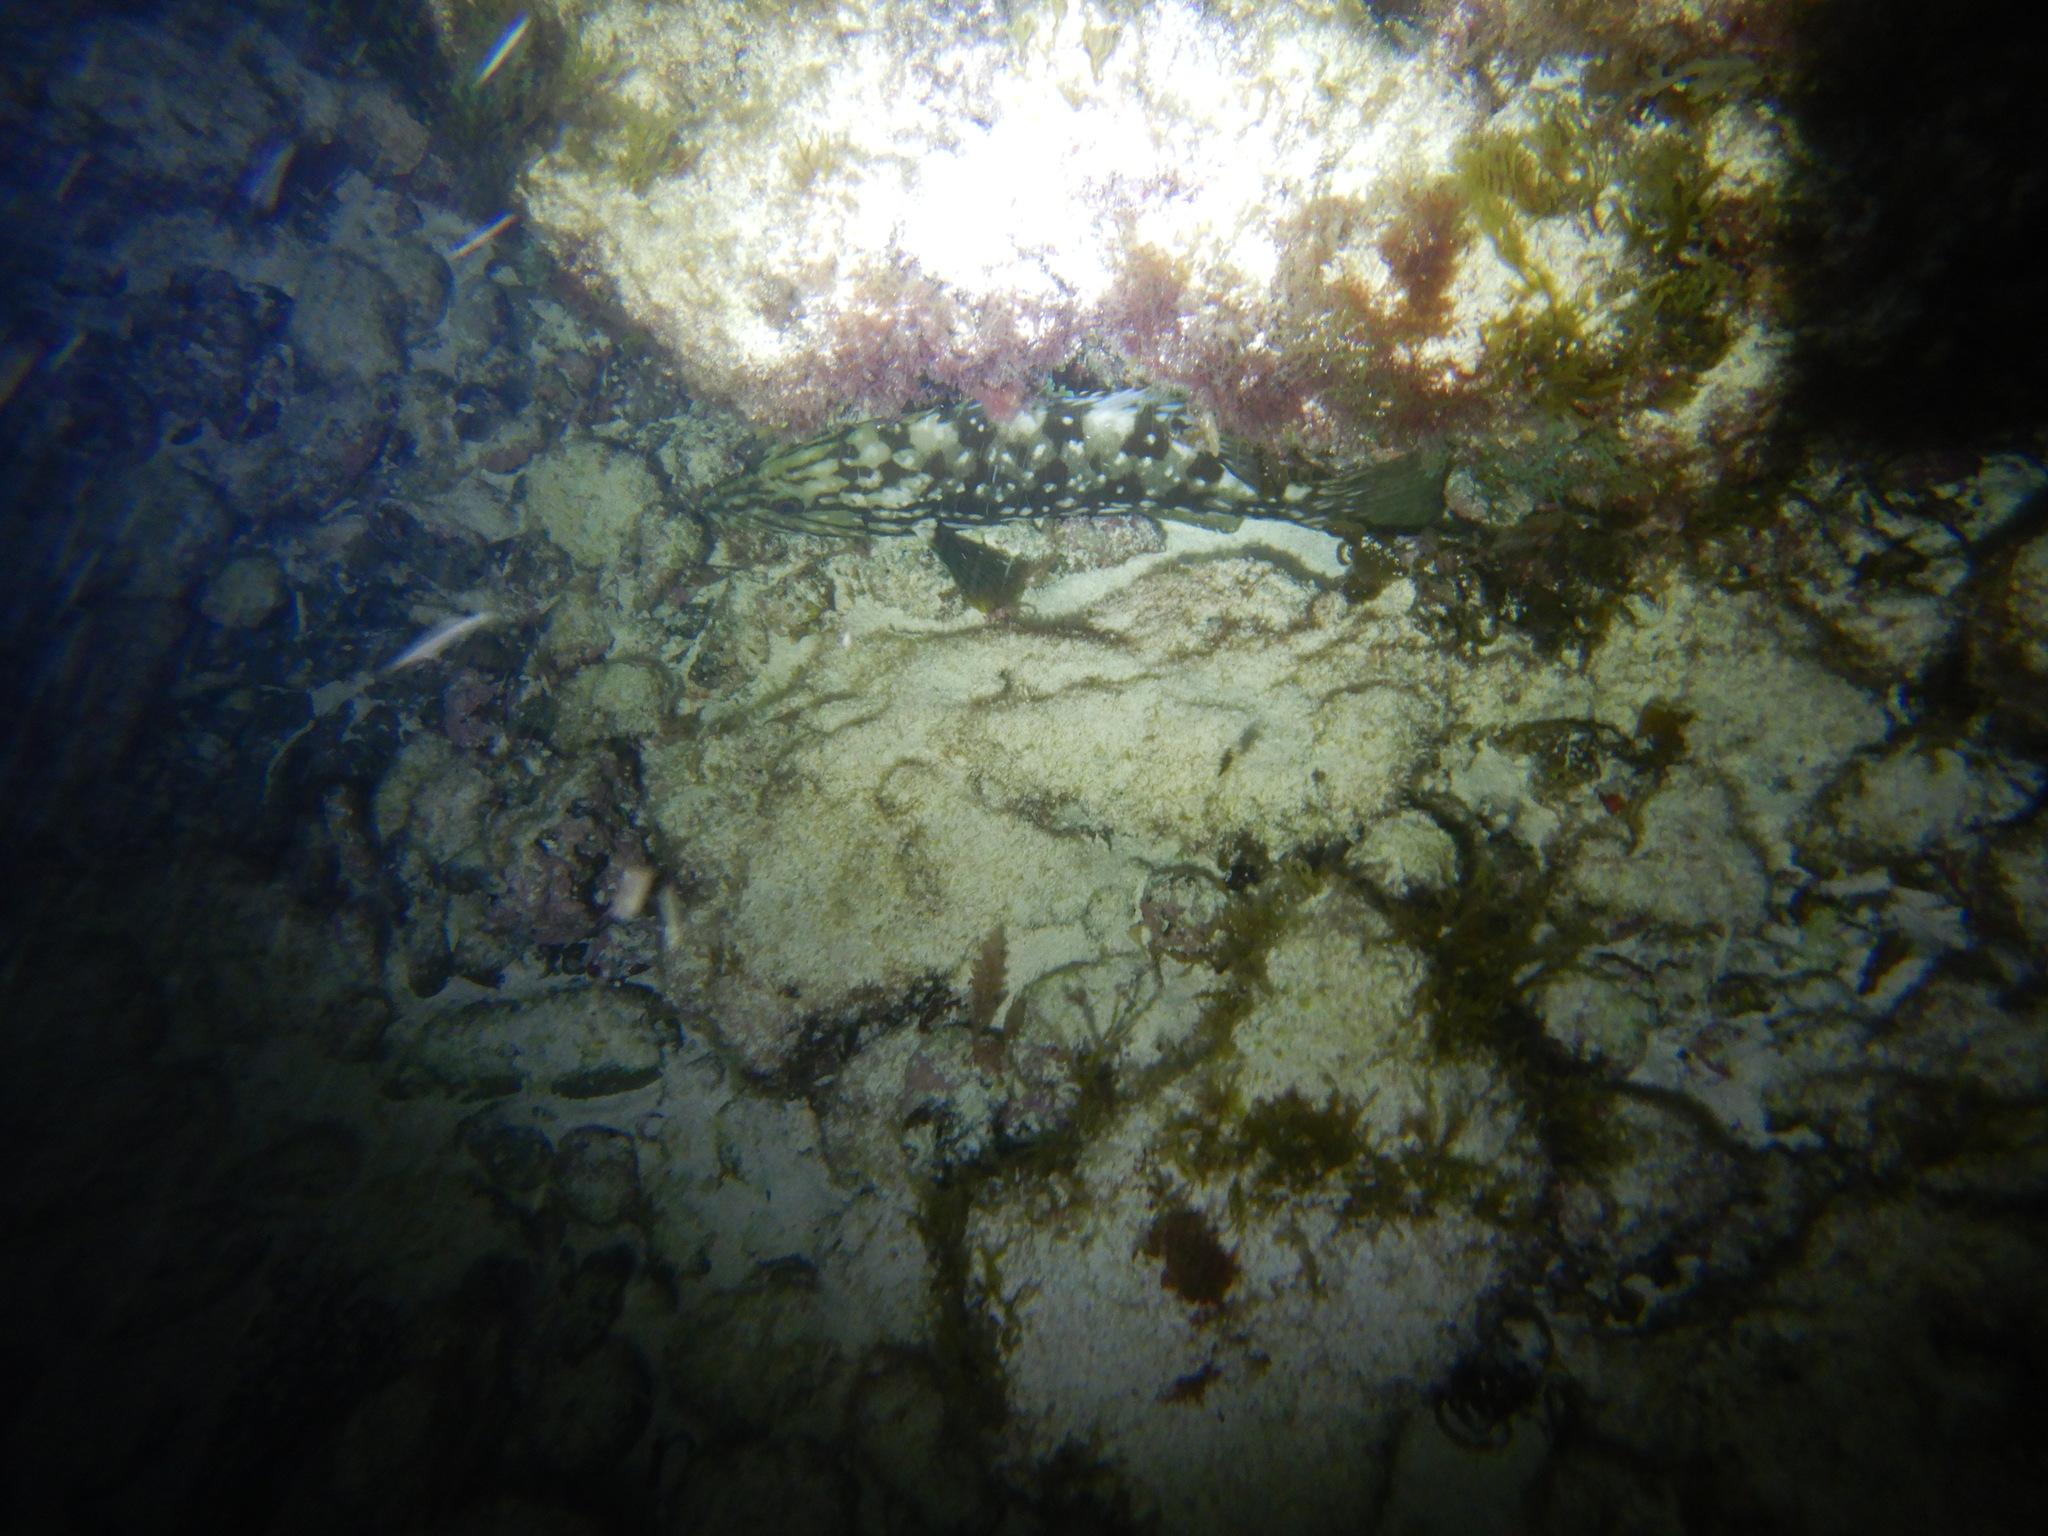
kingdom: Animalia
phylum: Chordata
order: Perciformes
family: Serranidae
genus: Mycteroperca
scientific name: Mycteroperca fusca
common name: Island grouper
